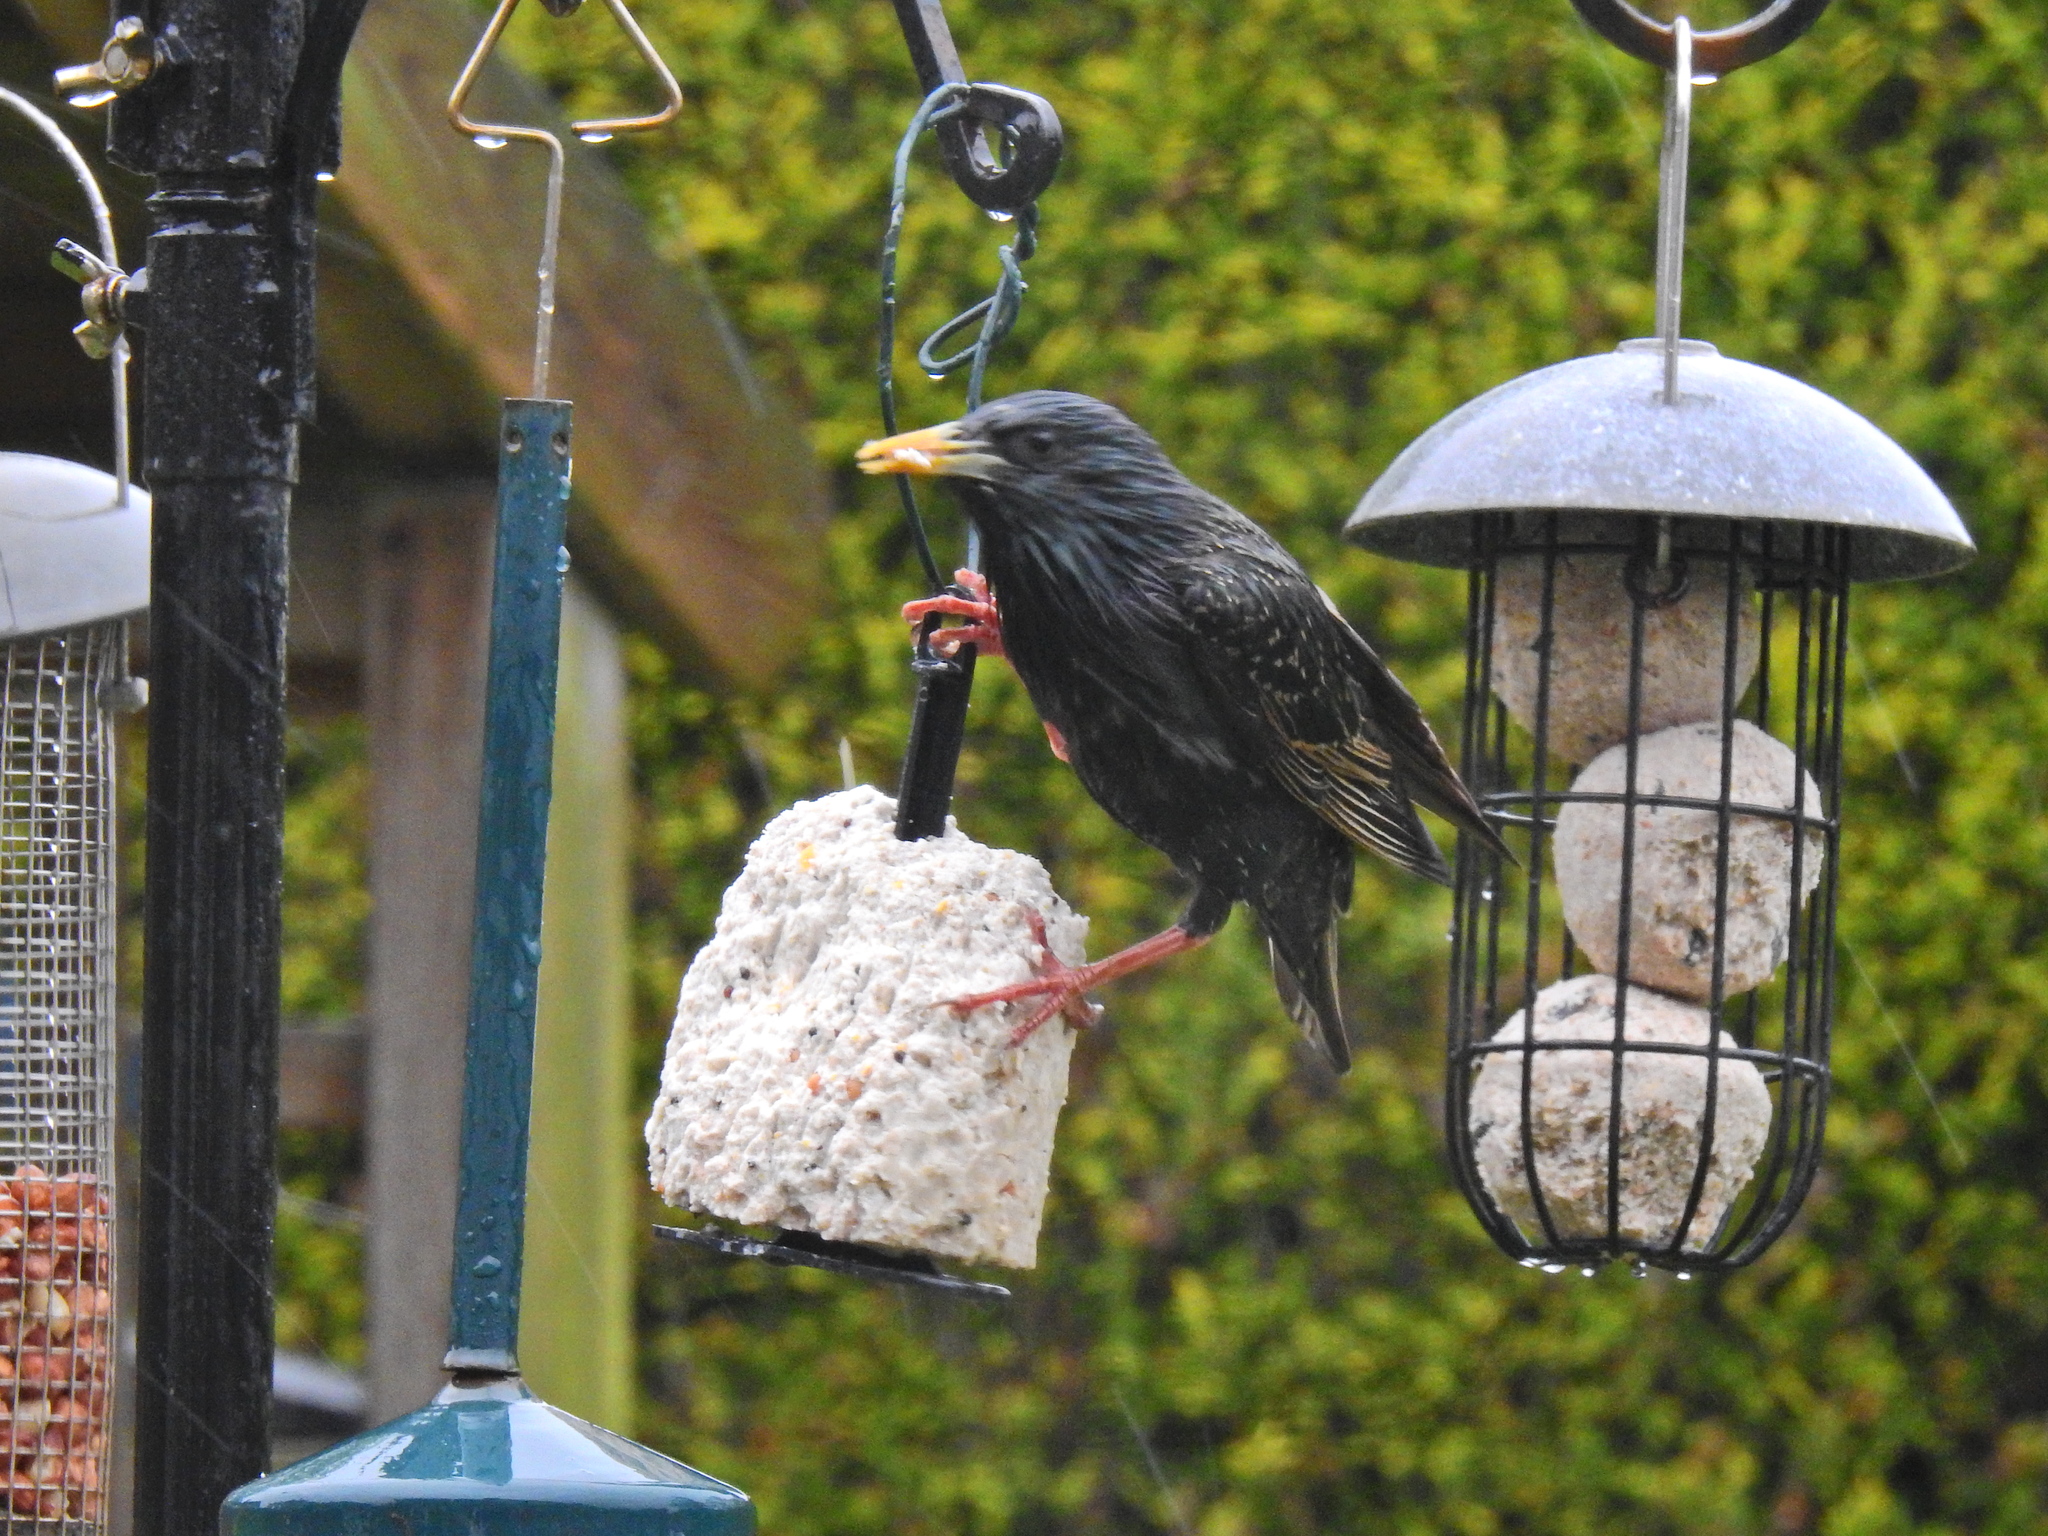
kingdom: Animalia
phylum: Chordata
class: Aves
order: Passeriformes
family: Sturnidae
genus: Sturnus
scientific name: Sturnus vulgaris
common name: Common starling
